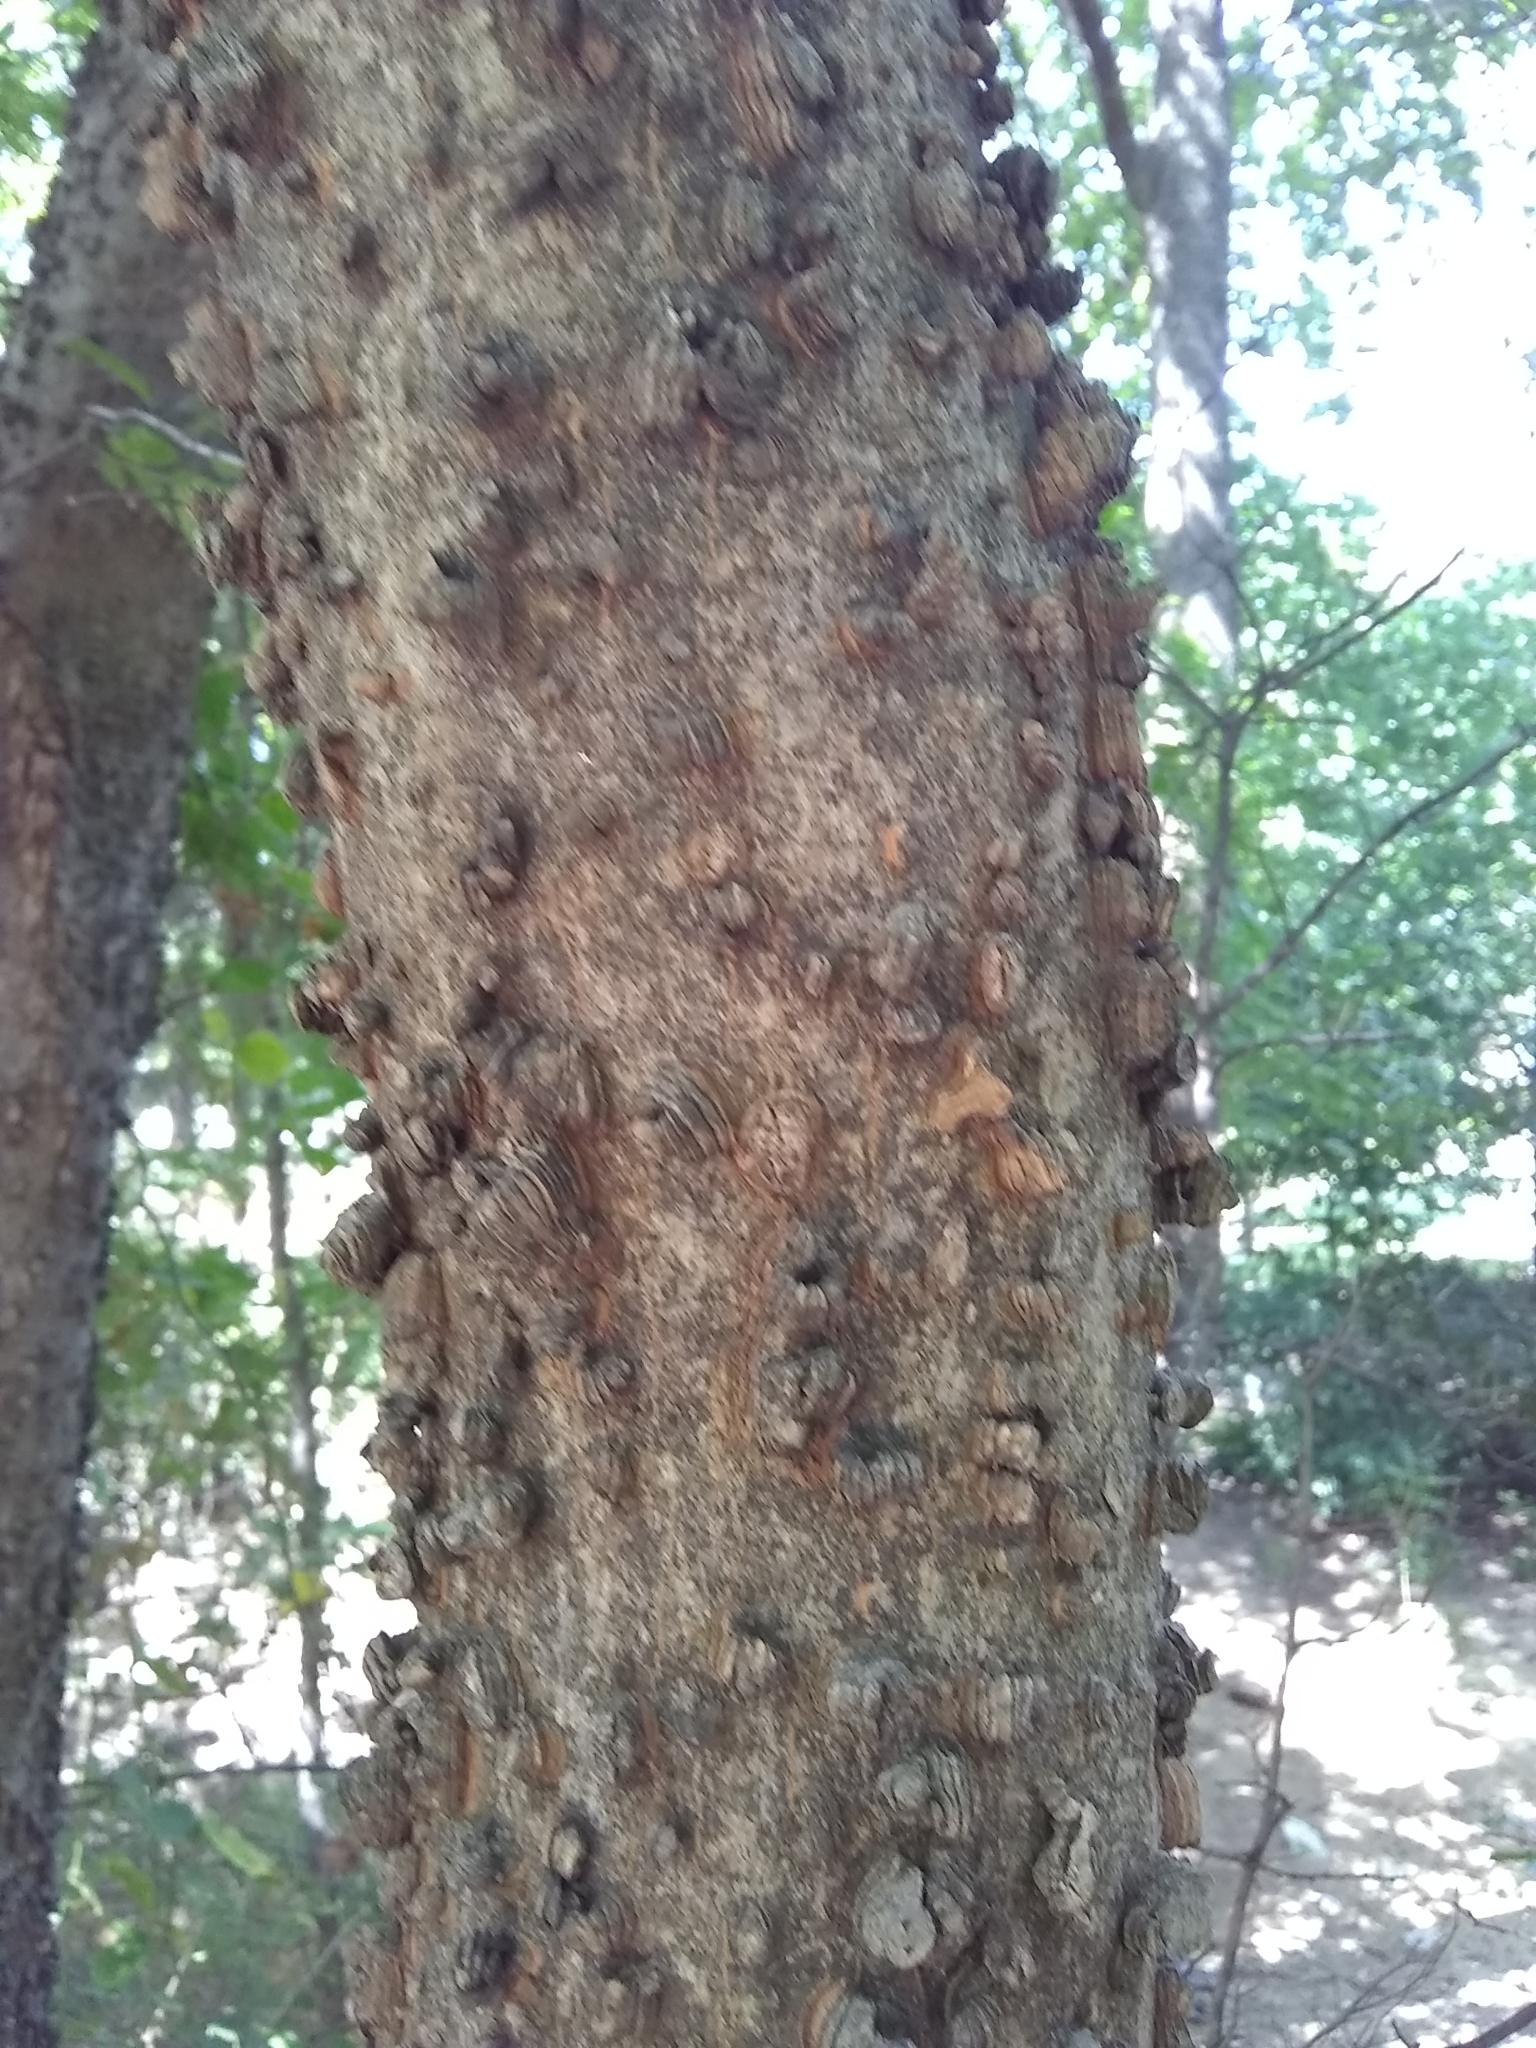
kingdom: Plantae
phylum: Tracheophyta
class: Magnoliopsida
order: Rosales
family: Cannabaceae
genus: Celtis
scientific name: Celtis laevigata
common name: Sugarberry
